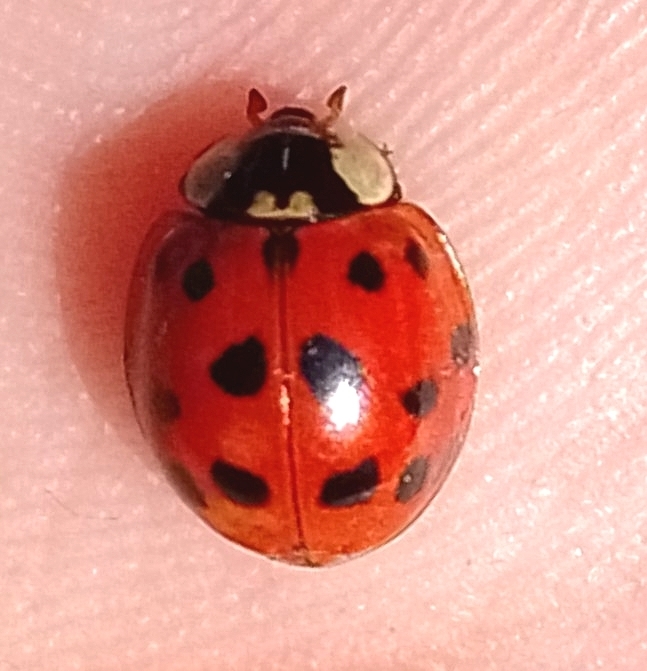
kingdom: Animalia
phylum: Arthropoda
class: Insecta
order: Coleoptera
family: Coccinellidae
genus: Harmonia
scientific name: Harmonia axyridis
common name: Harlequin ladybird
